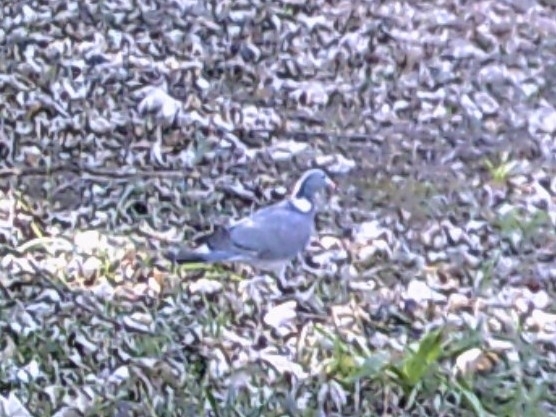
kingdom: Animalia
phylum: Chordata
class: Aves
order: Columbiformes
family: Columbidae
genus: Columba
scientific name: Columba palumbus
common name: Common wood pigeon
